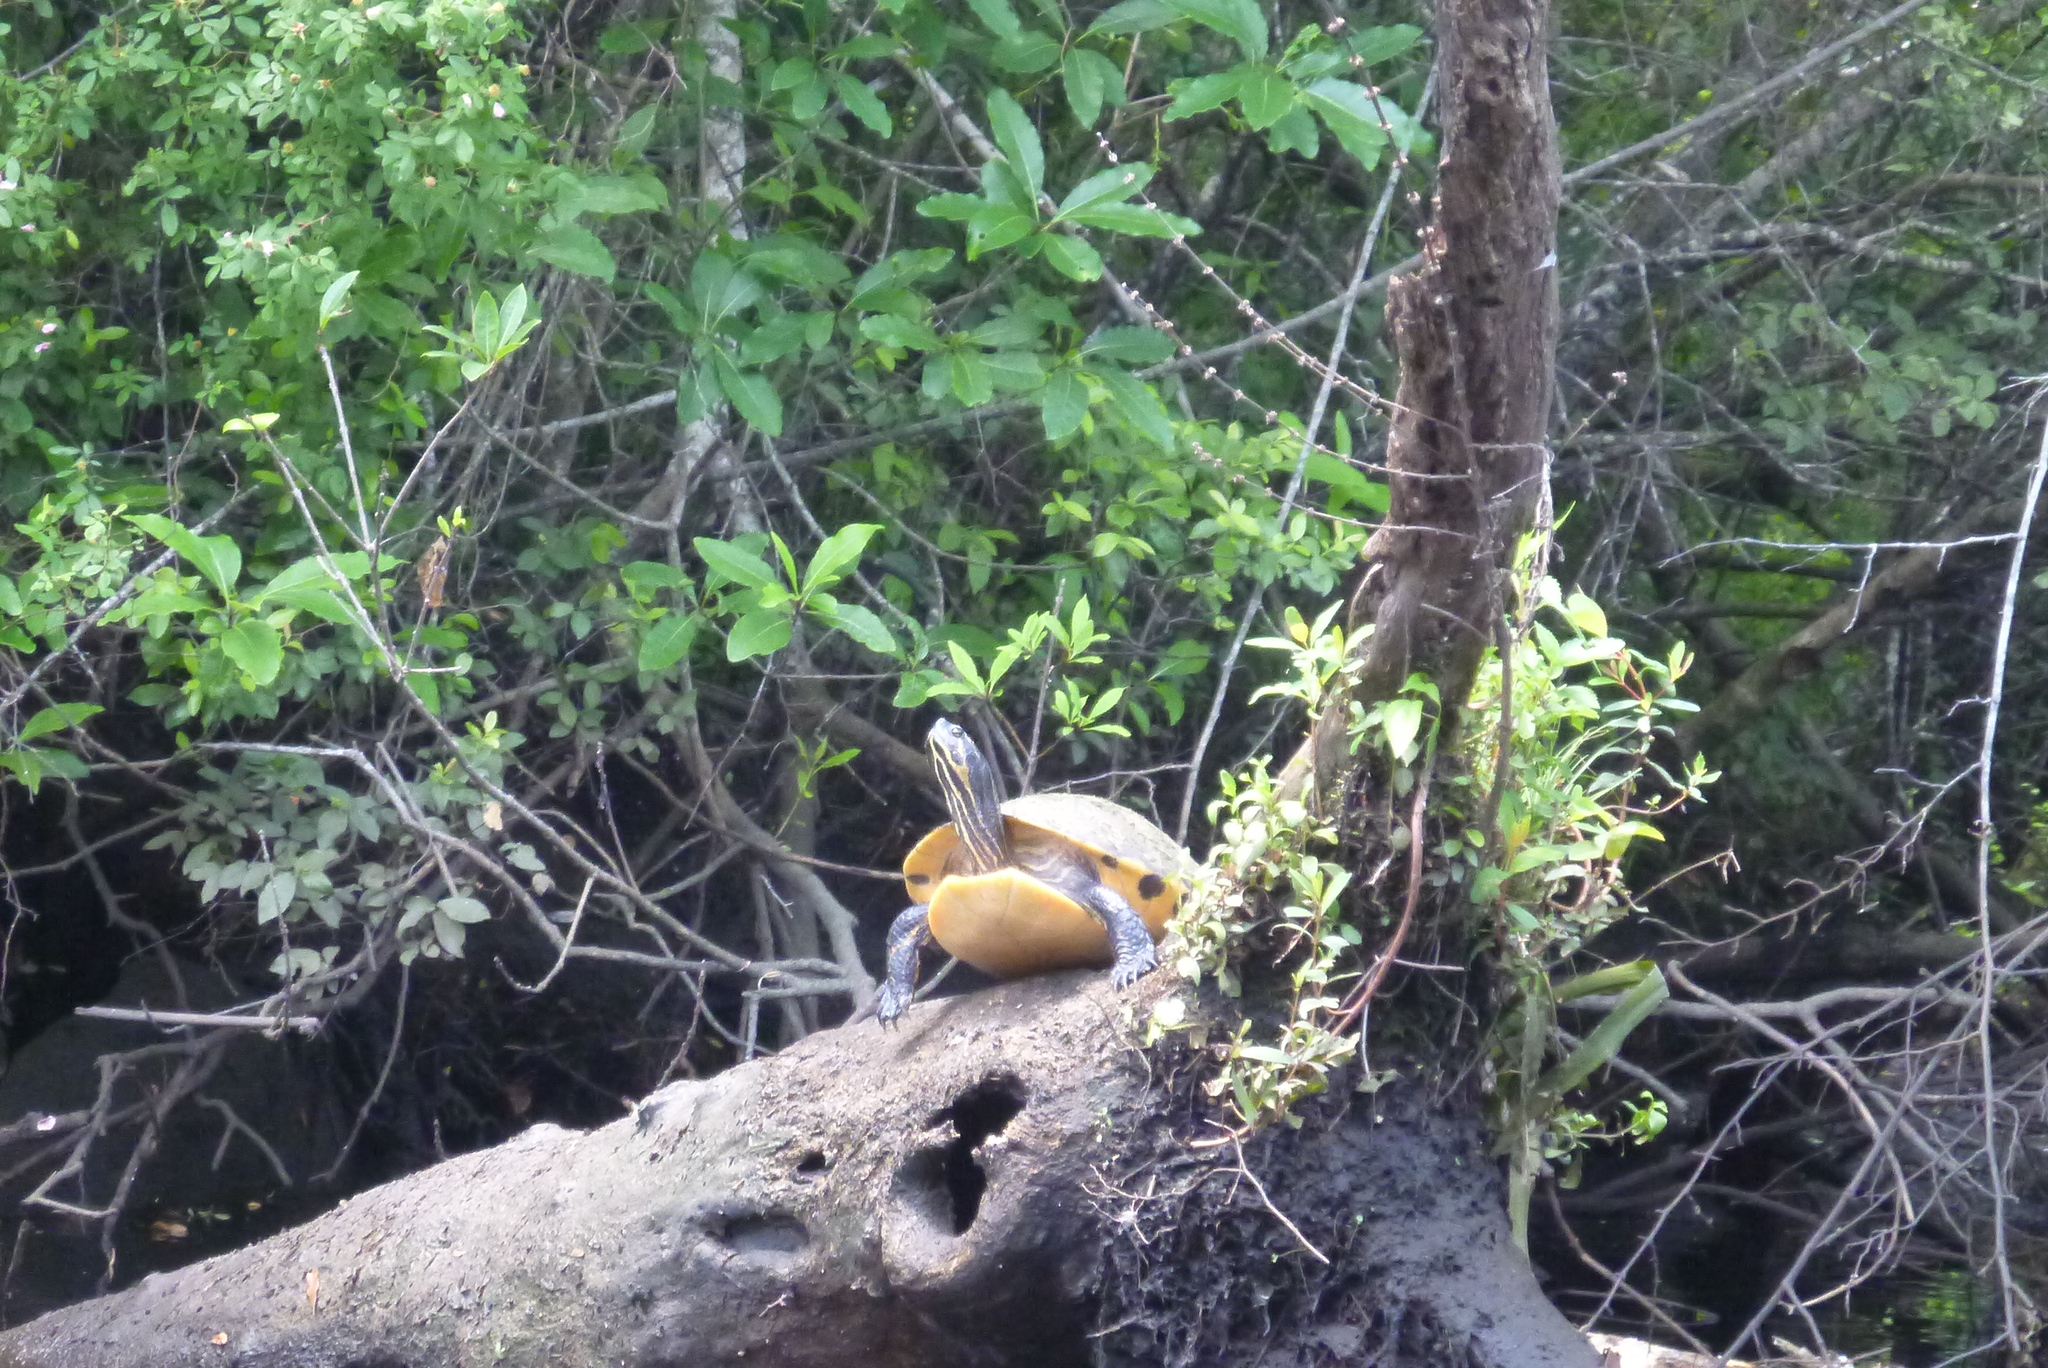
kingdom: Animalia
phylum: Chordata
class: Testudines
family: Emydidae
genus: Pseudemys
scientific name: Pseudemys concinna
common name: Eastern river cooter
